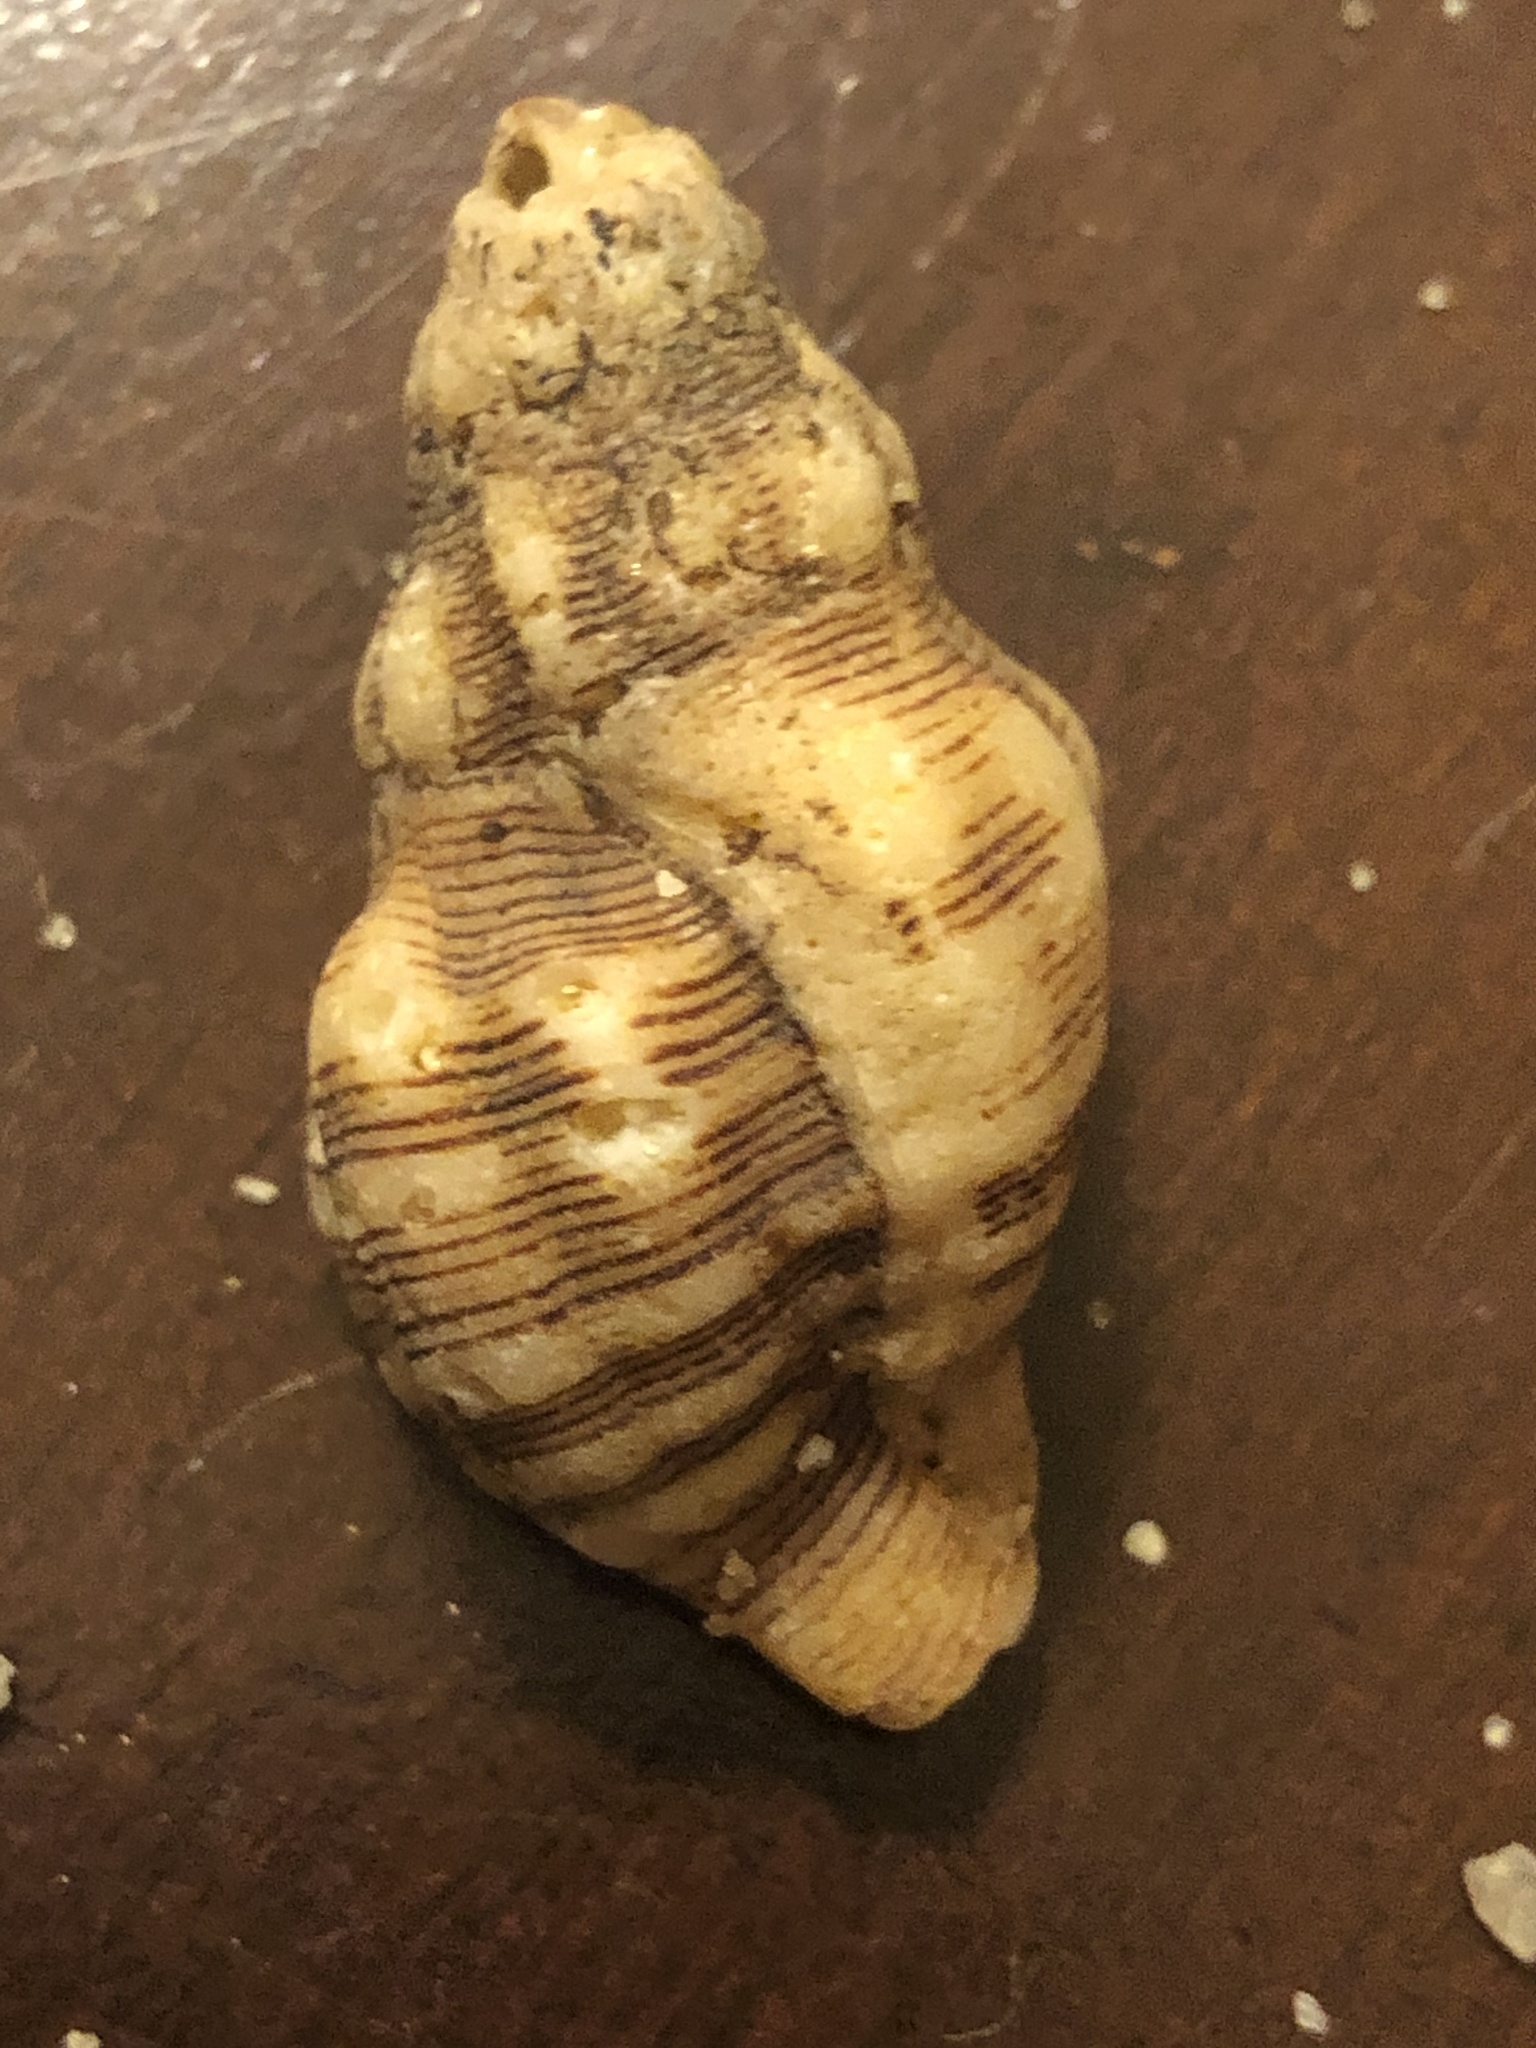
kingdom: Animalia
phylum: Mollusca
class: Gastropoda
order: Neogastropoda
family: Muricidae
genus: Roperia
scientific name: Roperia poulsoni
